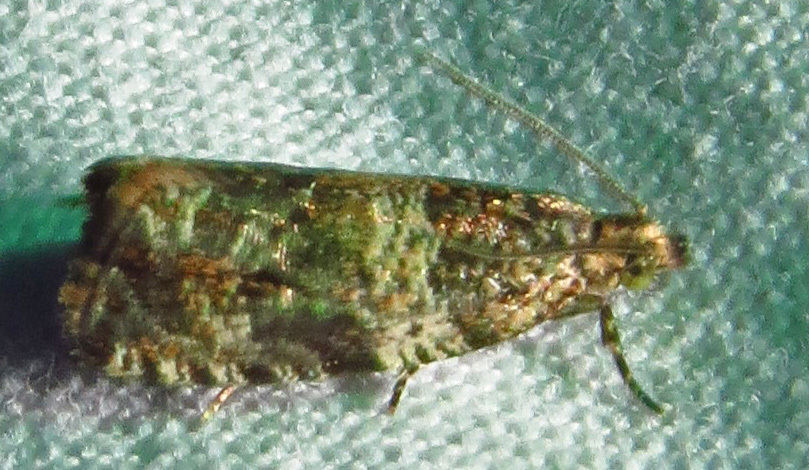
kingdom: Animalia
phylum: Arthropoda
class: Insecta
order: Lepidoptera
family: Tortricidae
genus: Celypha
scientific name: Celypha cespitana
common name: Thyme marble
